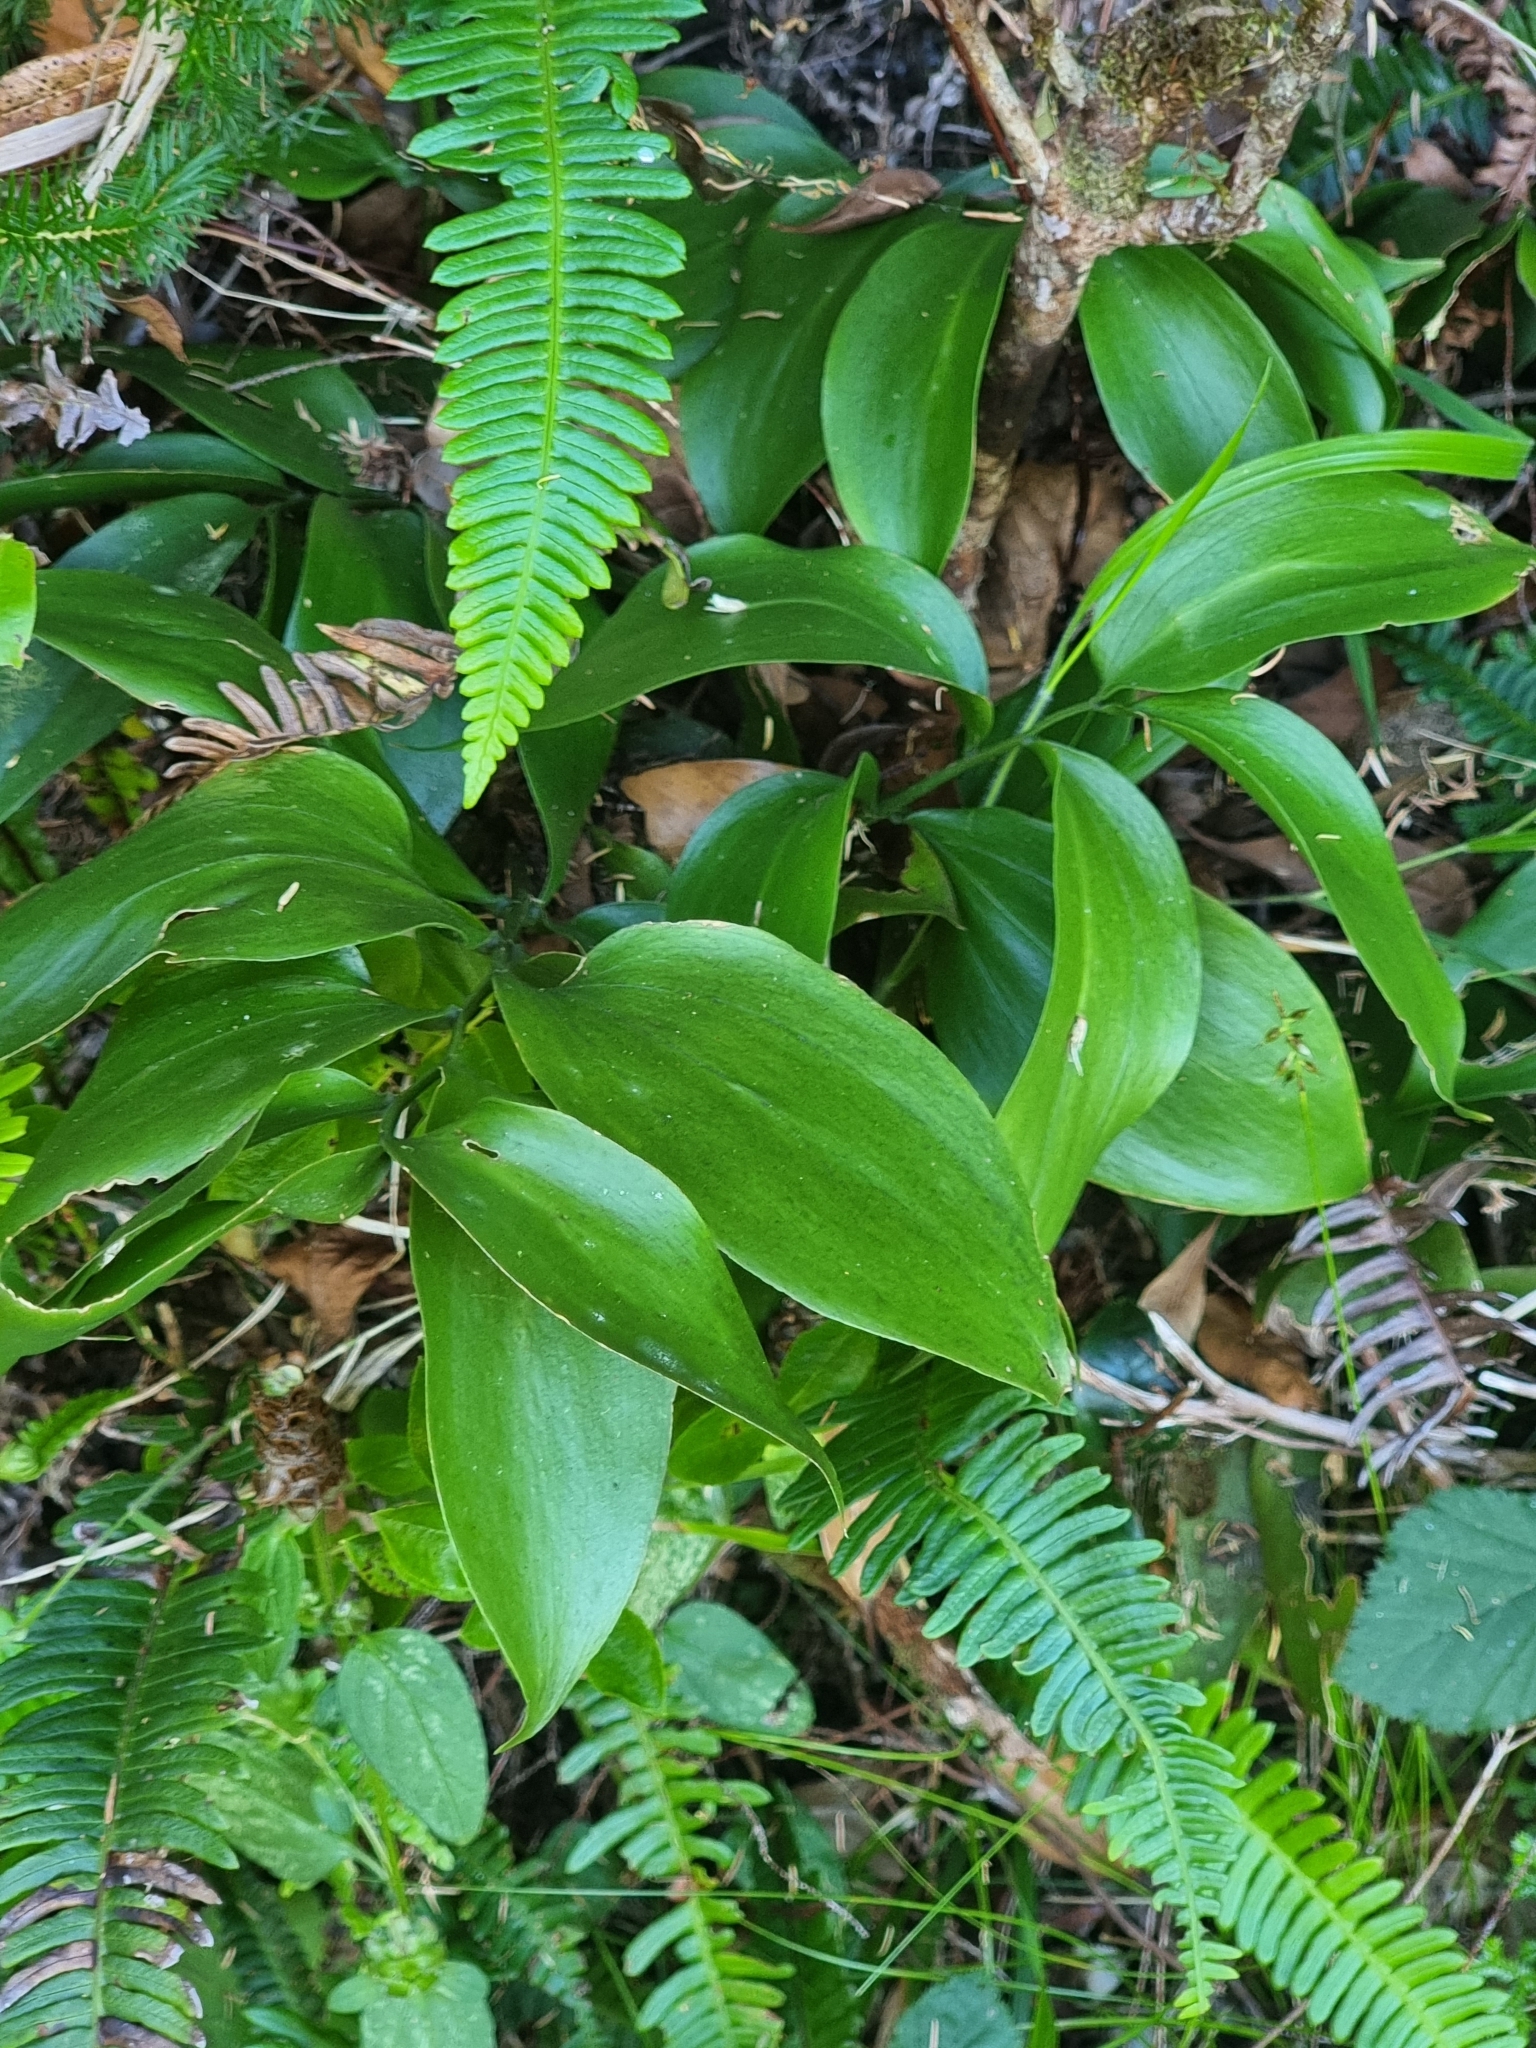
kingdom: Plantae
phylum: Tracheophyta
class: Liliopsida
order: Asparagales
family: Asparagaceae
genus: Ruscus
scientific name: Ruscus streptophyllus
